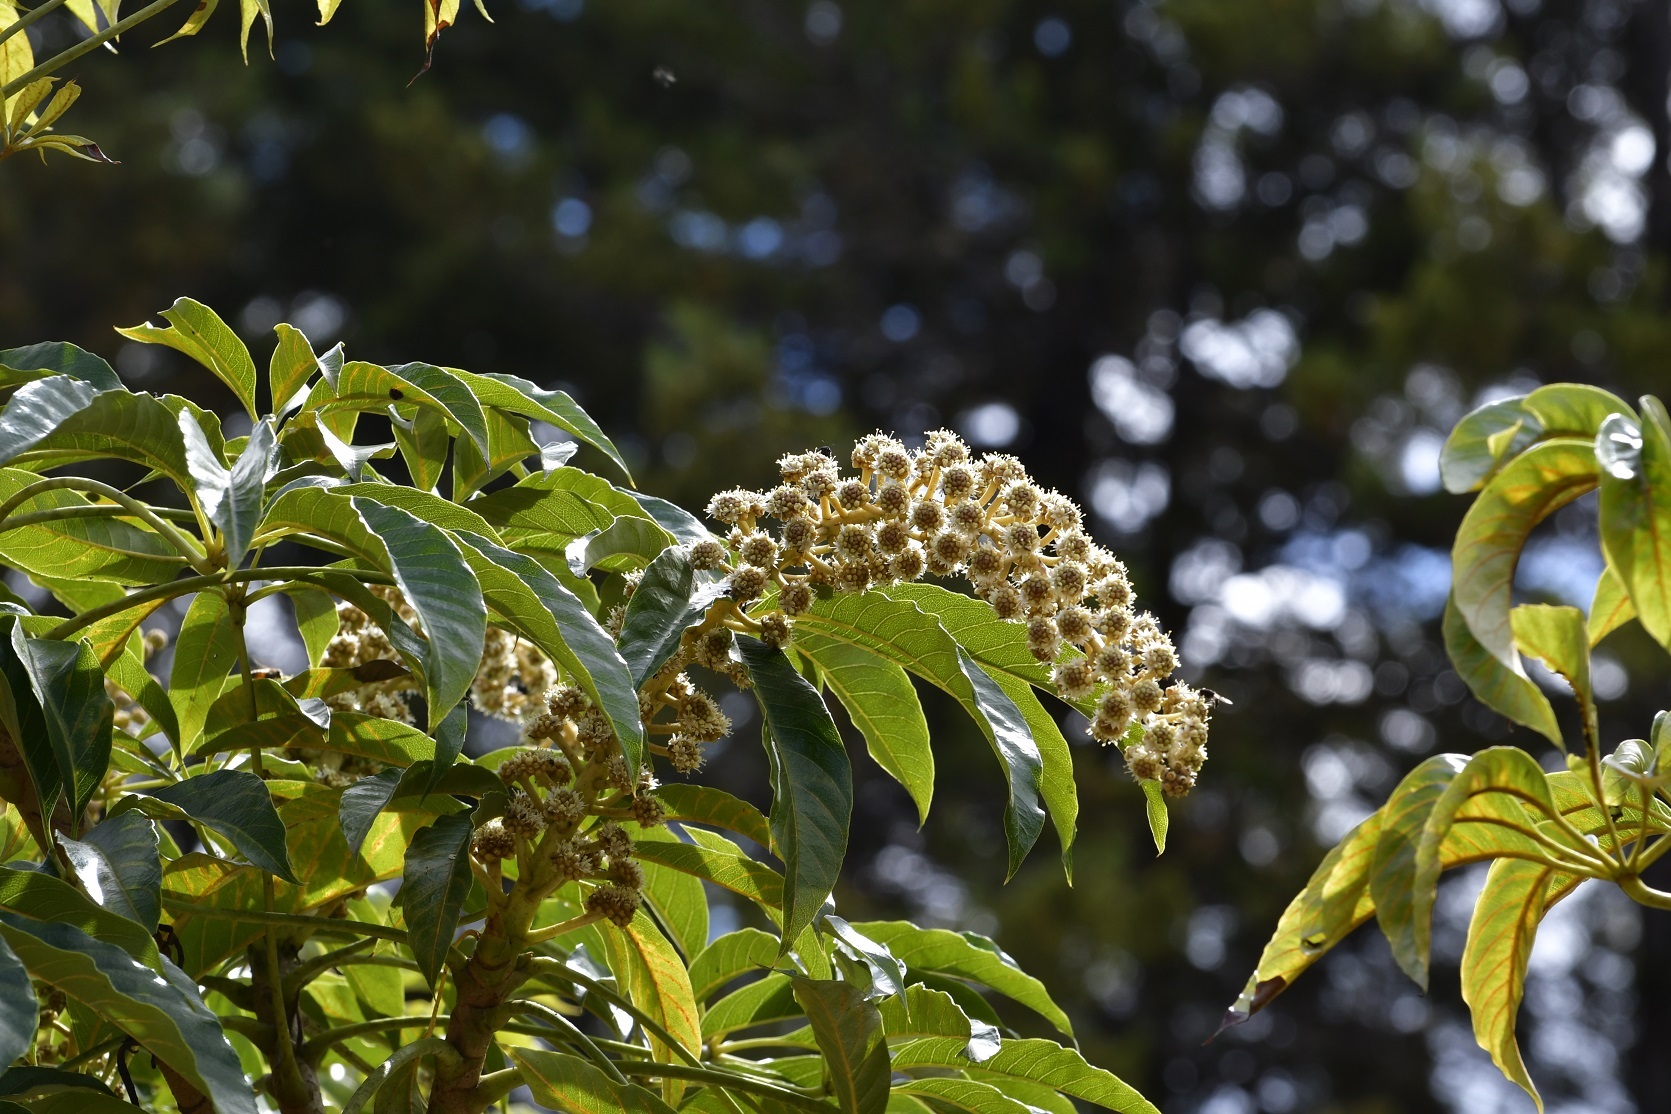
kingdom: Plantae
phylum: Tracheophyta
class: Magnoliopsida
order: Apiales
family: Araliaceae
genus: Oreopanax
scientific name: Oreopanax xalapensis
